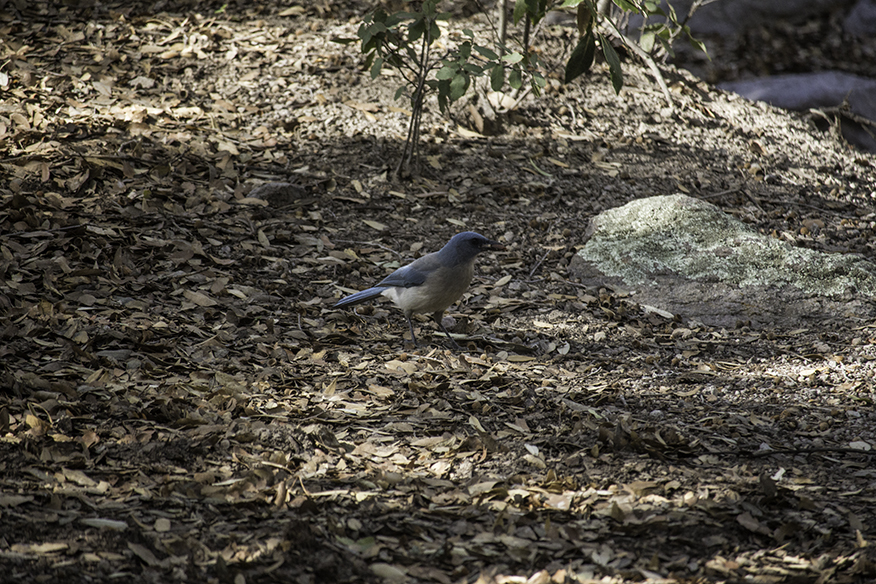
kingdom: Animalia
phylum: Chordata
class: Aves
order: Passeriformes
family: Corvidae
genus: Aphelocoma
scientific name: Aphelocoma wollweberi
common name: Mexican jay
